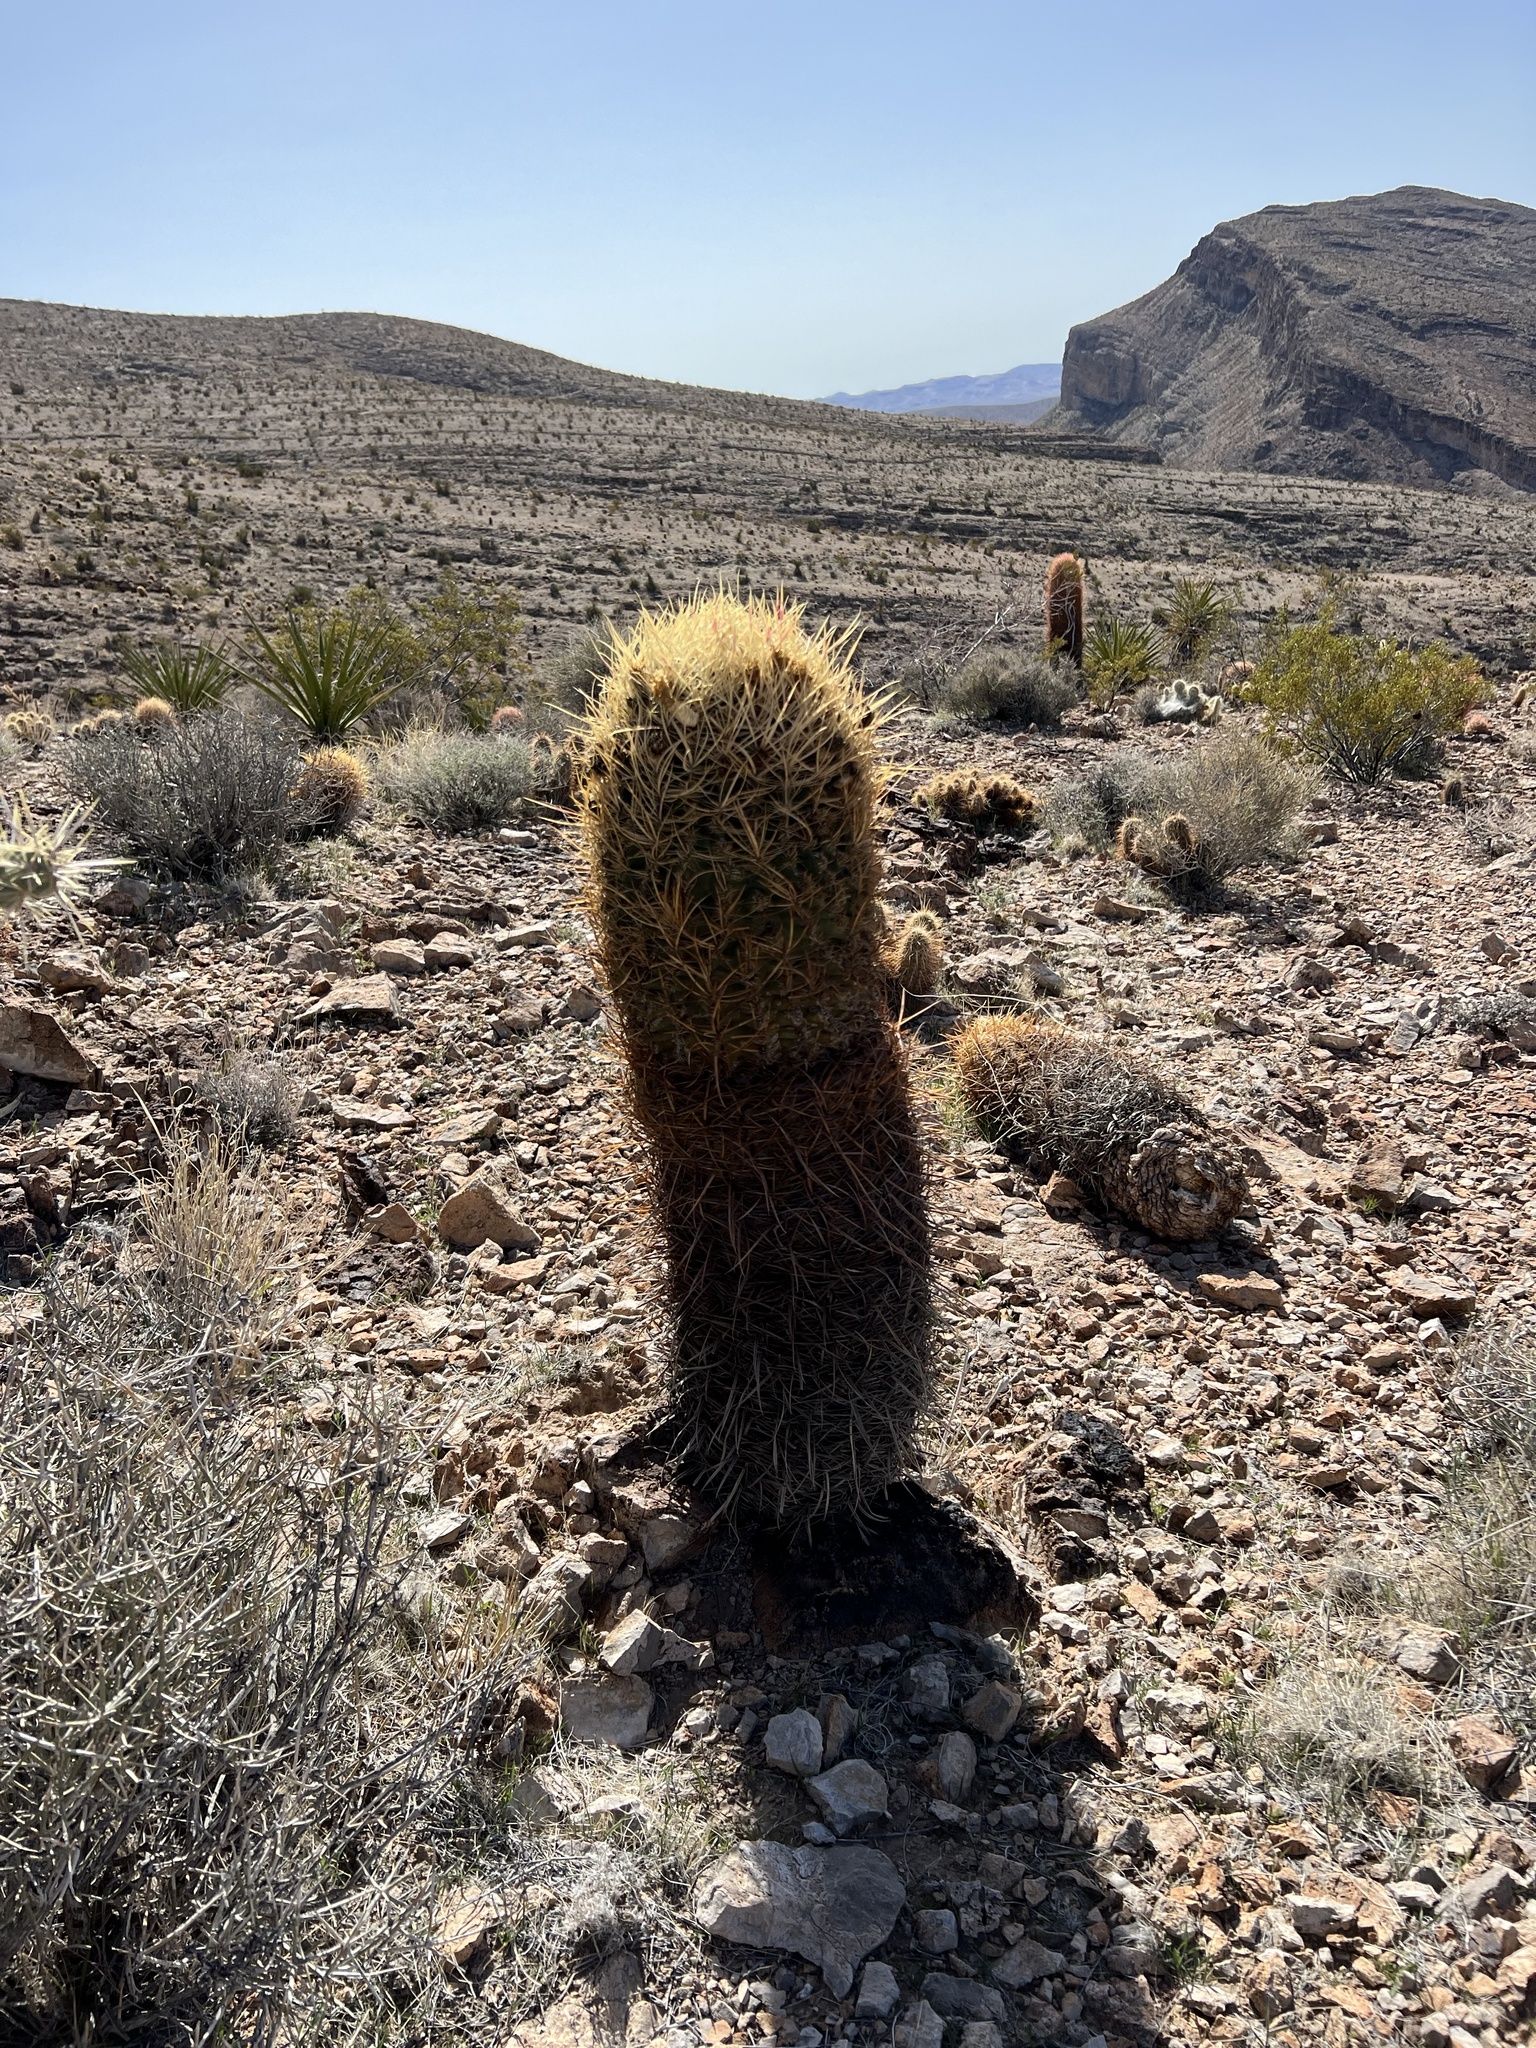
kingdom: Plantae
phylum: Tracheophyta
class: Magnoliopsida
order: Caryophyllales
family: Cactaceae
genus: Ferocactus
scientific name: Ferocactus cylindraceus
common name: California barrel cactus
